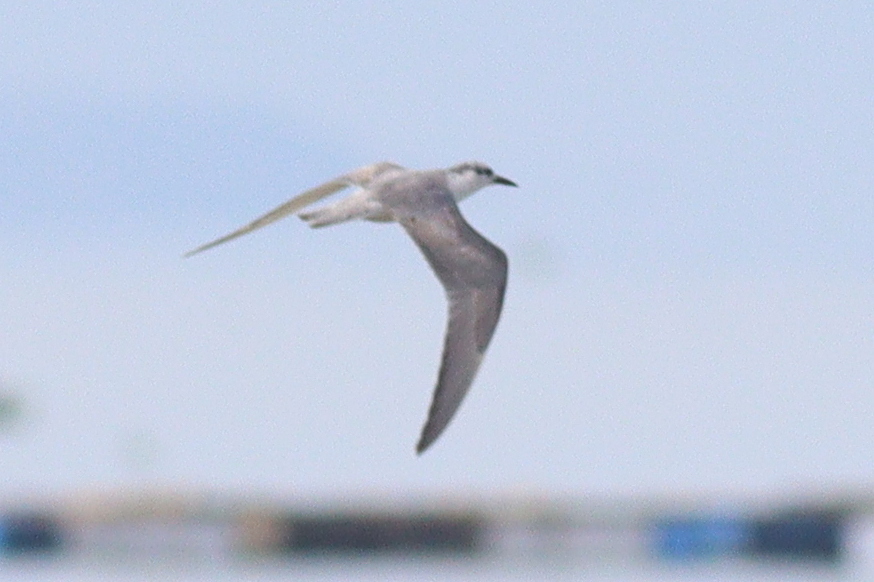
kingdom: Animalia
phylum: Chordata
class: Aves
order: Charadriiformes
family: Laridae
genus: Chlidonias
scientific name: Chlidonias leucopterus
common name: White-winged tern
